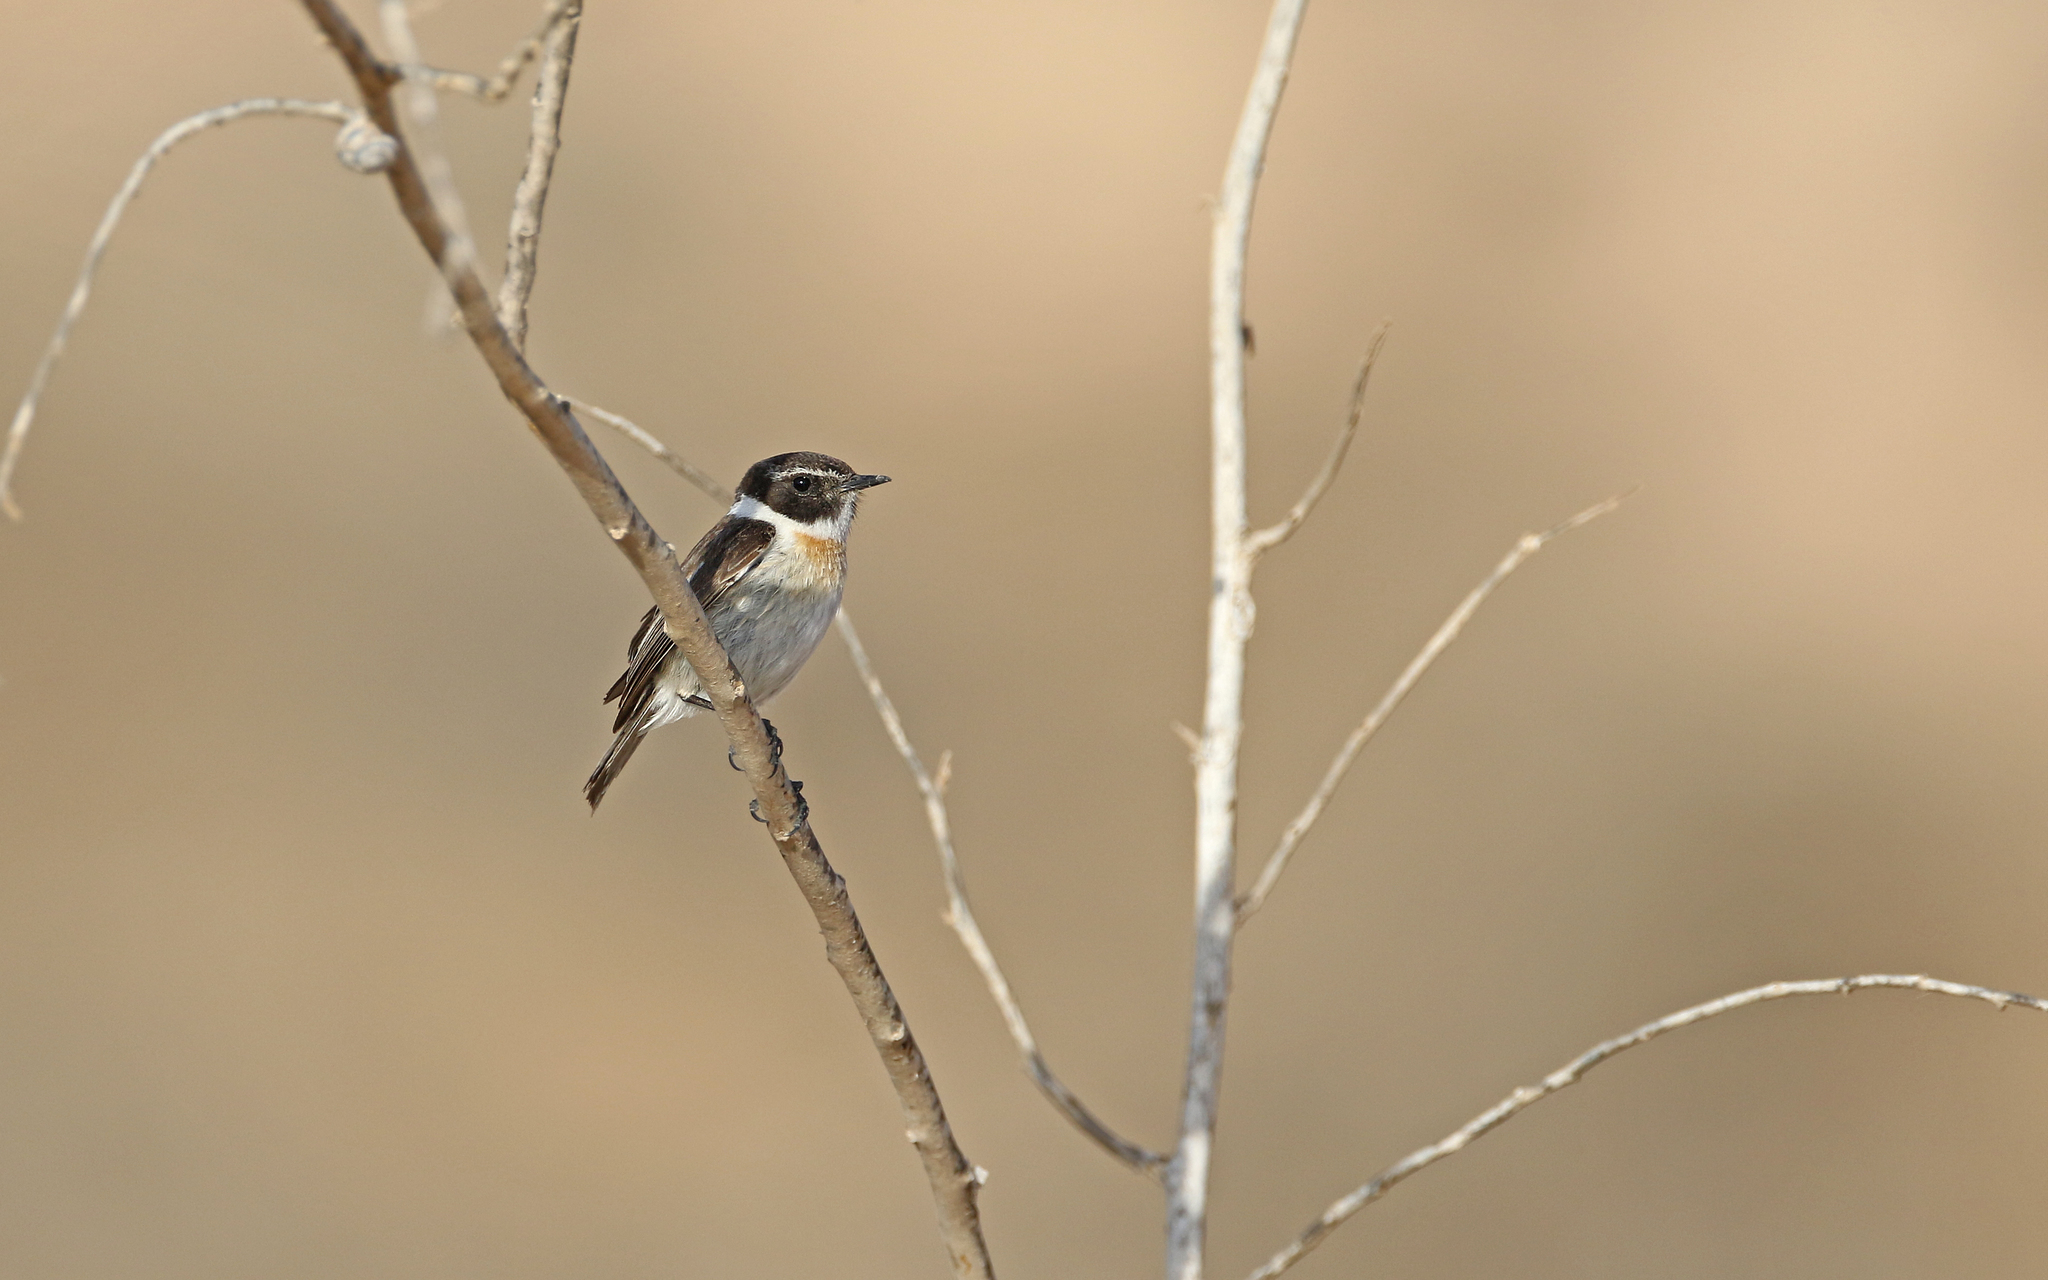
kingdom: Animalia
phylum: Chordata
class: Aves
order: Passeriformes
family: Muscicapidae
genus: Saxicola
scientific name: Saxicola dacotiae
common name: Canary islands stonechat
